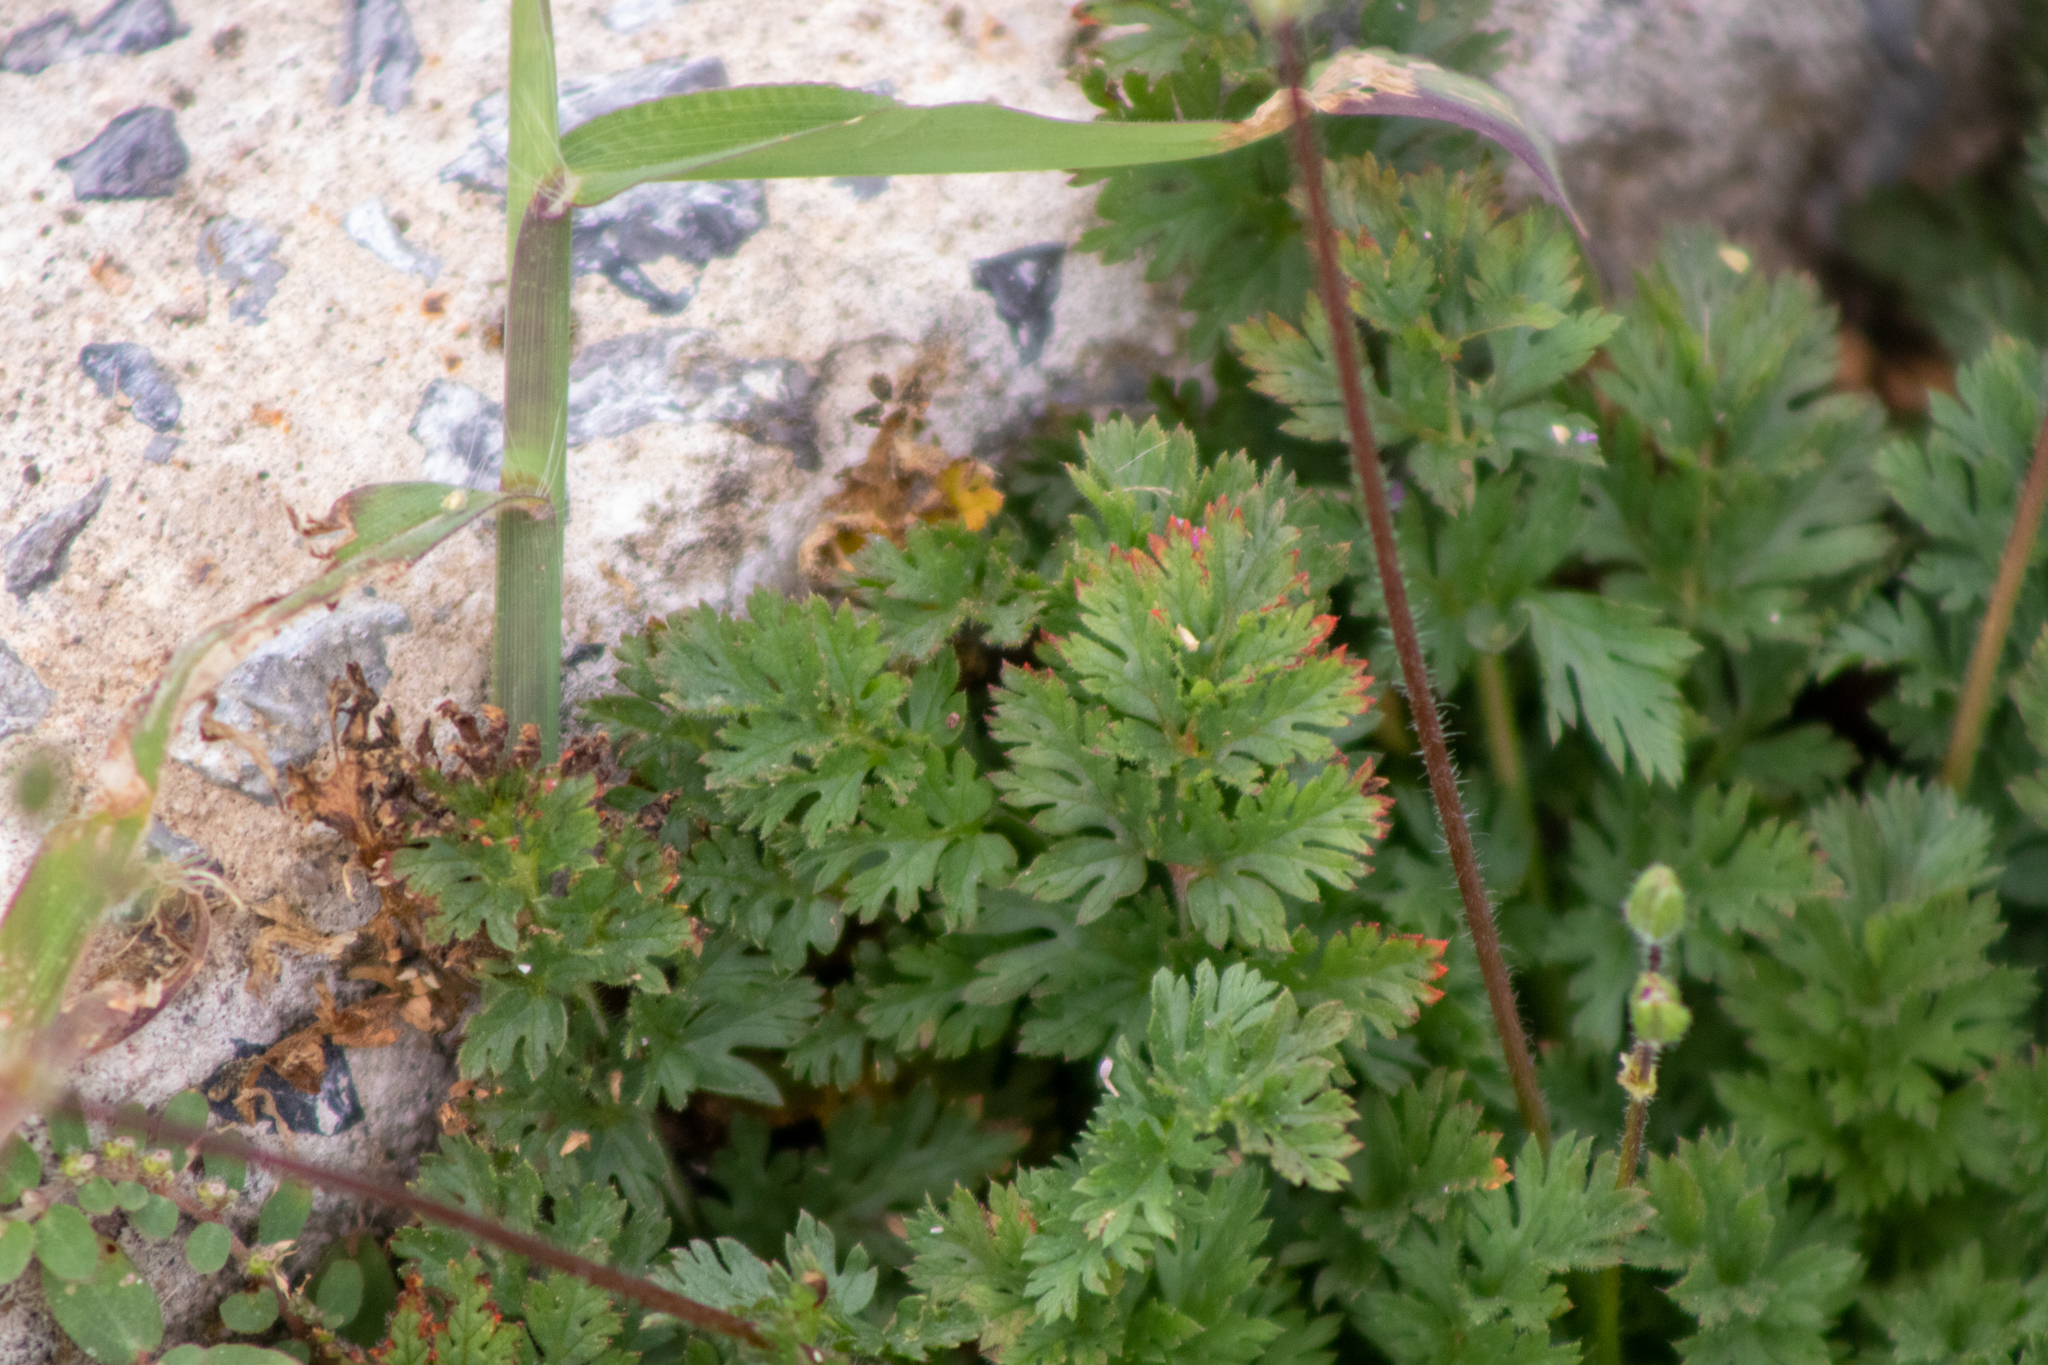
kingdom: Plantae
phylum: Tracheophyta
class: Magnoliopsida
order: Geraniales
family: Geraniaceae
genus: Erodium
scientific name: Erodium cicutarium
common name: Common stork's-bill
